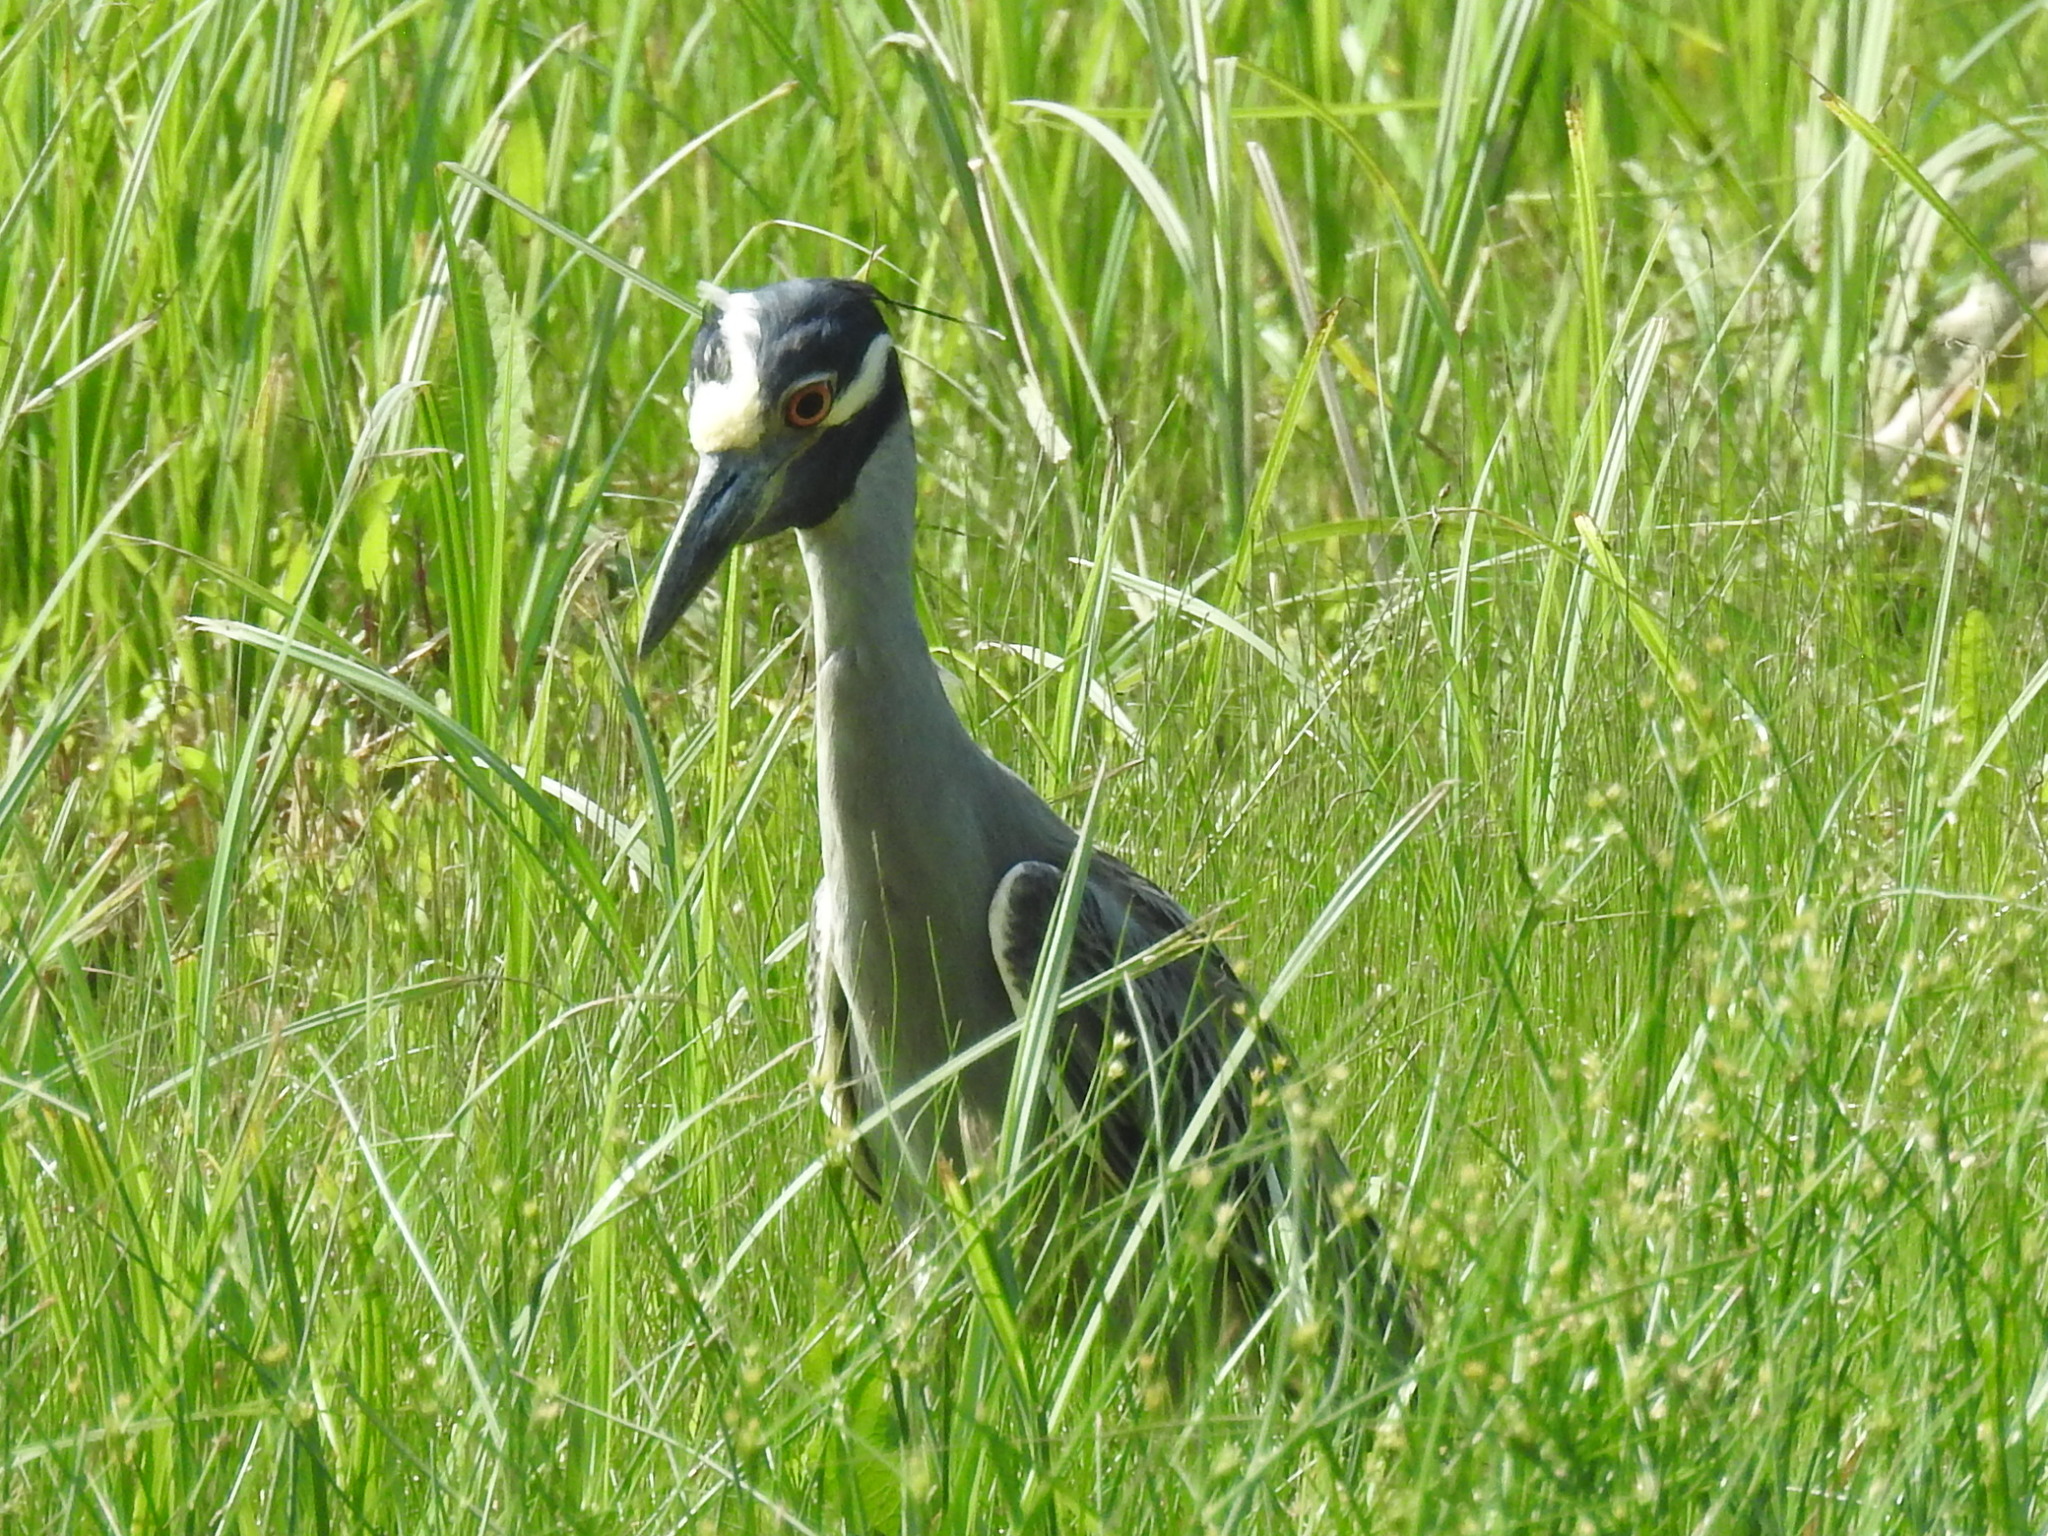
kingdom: Animalia
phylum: Chordata
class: Aves
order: Pelecaniformes
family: Ardeidae
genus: Nyctanassa
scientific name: Nyctanassa violacea
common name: Yellow-crowned night heron
